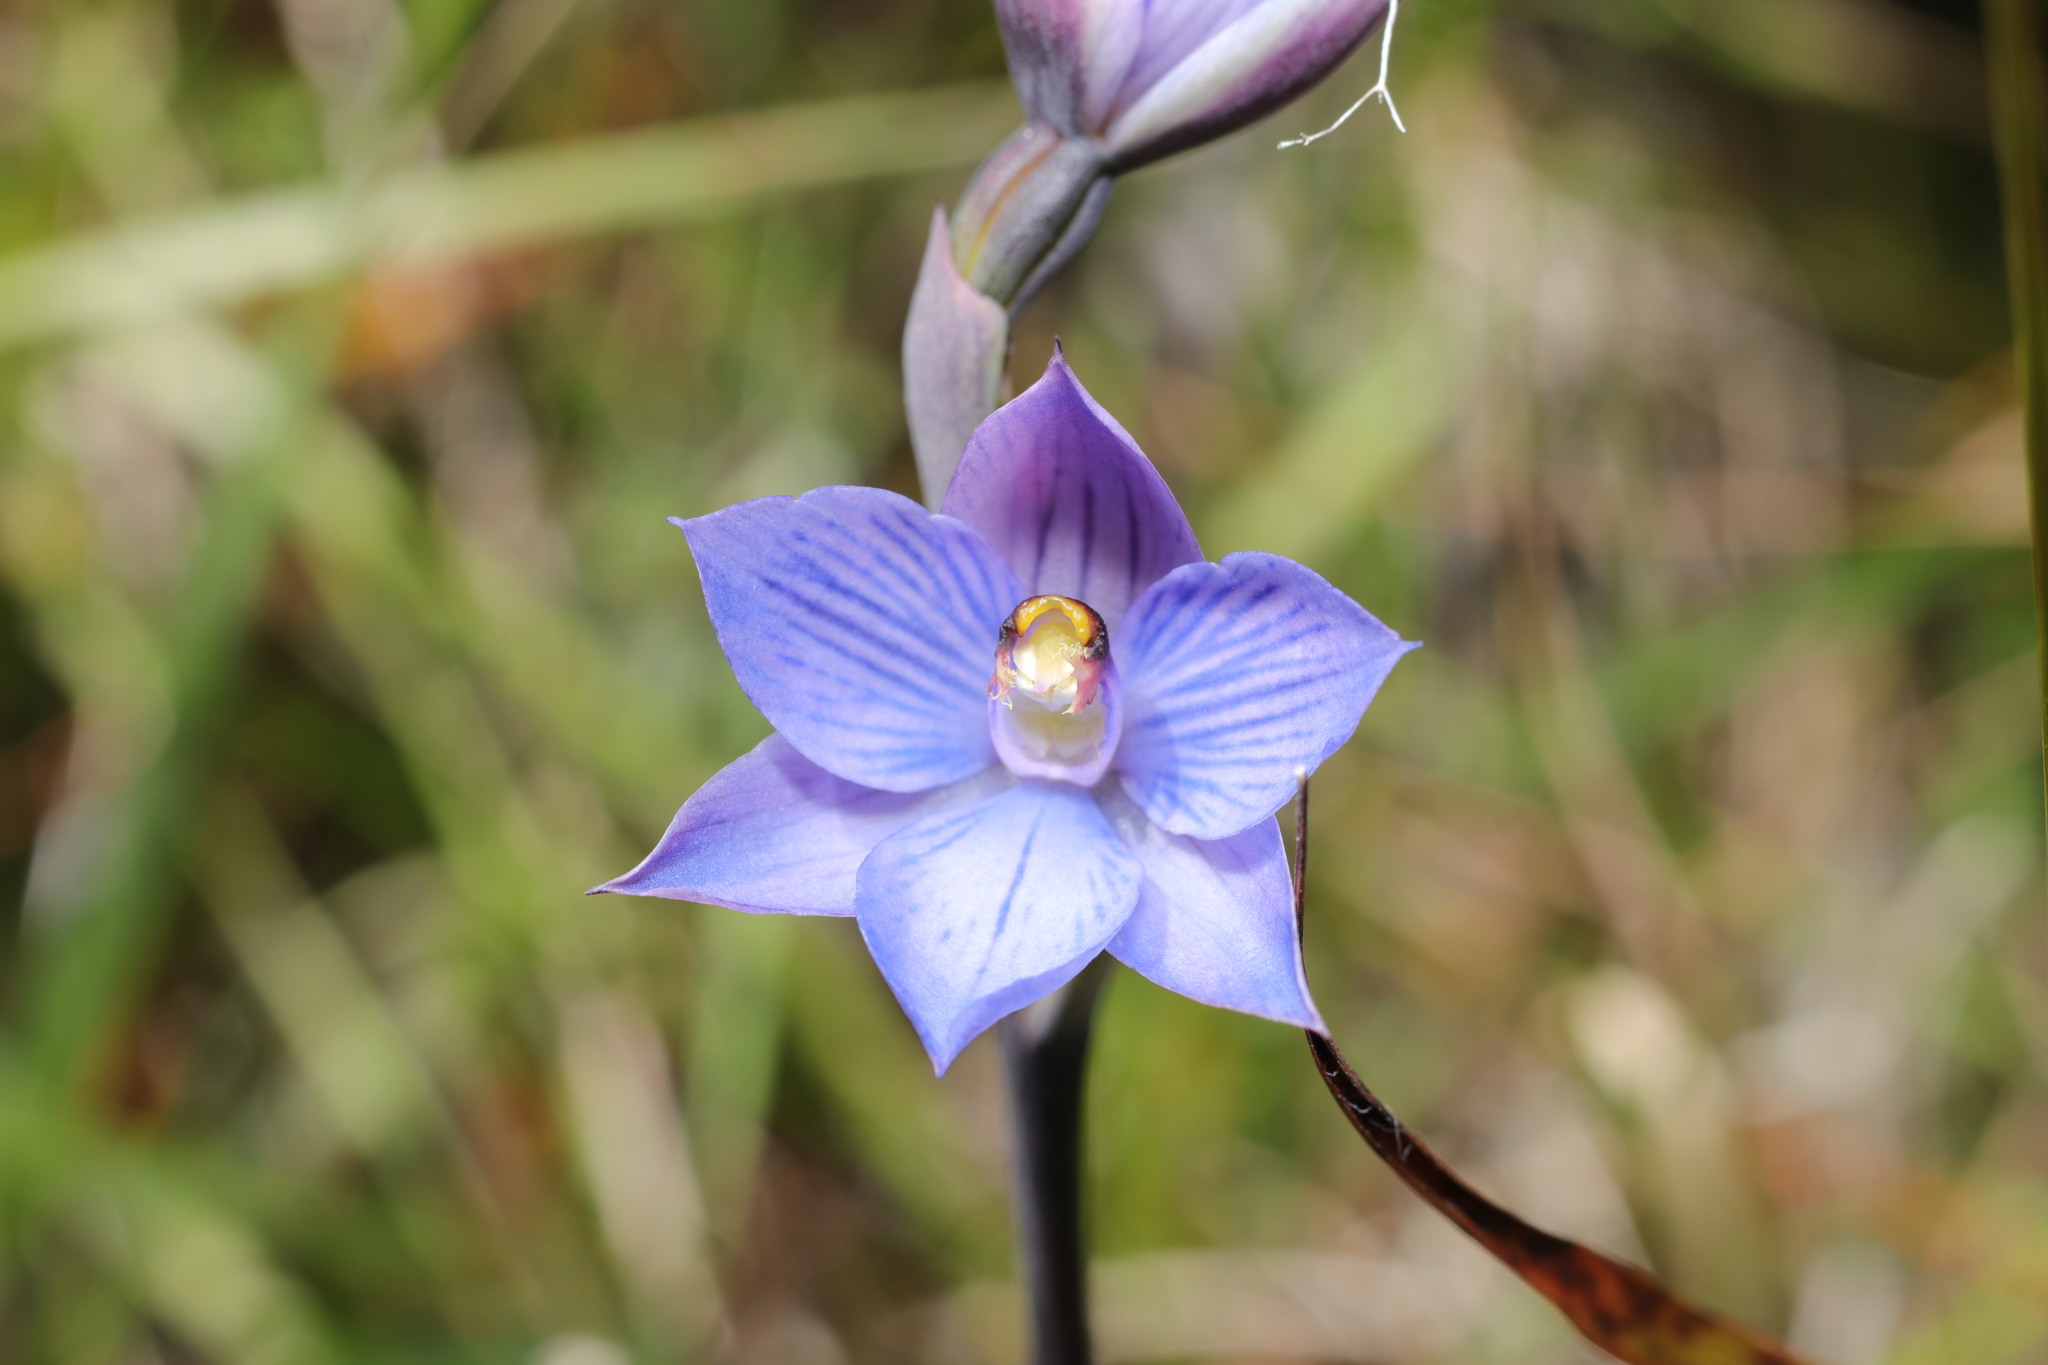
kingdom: Plantae
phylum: Tracheophyta
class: Liliopsida
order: Asparagales
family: Orchidaceae
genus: Thelymitra
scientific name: Thelymitra pulchella
